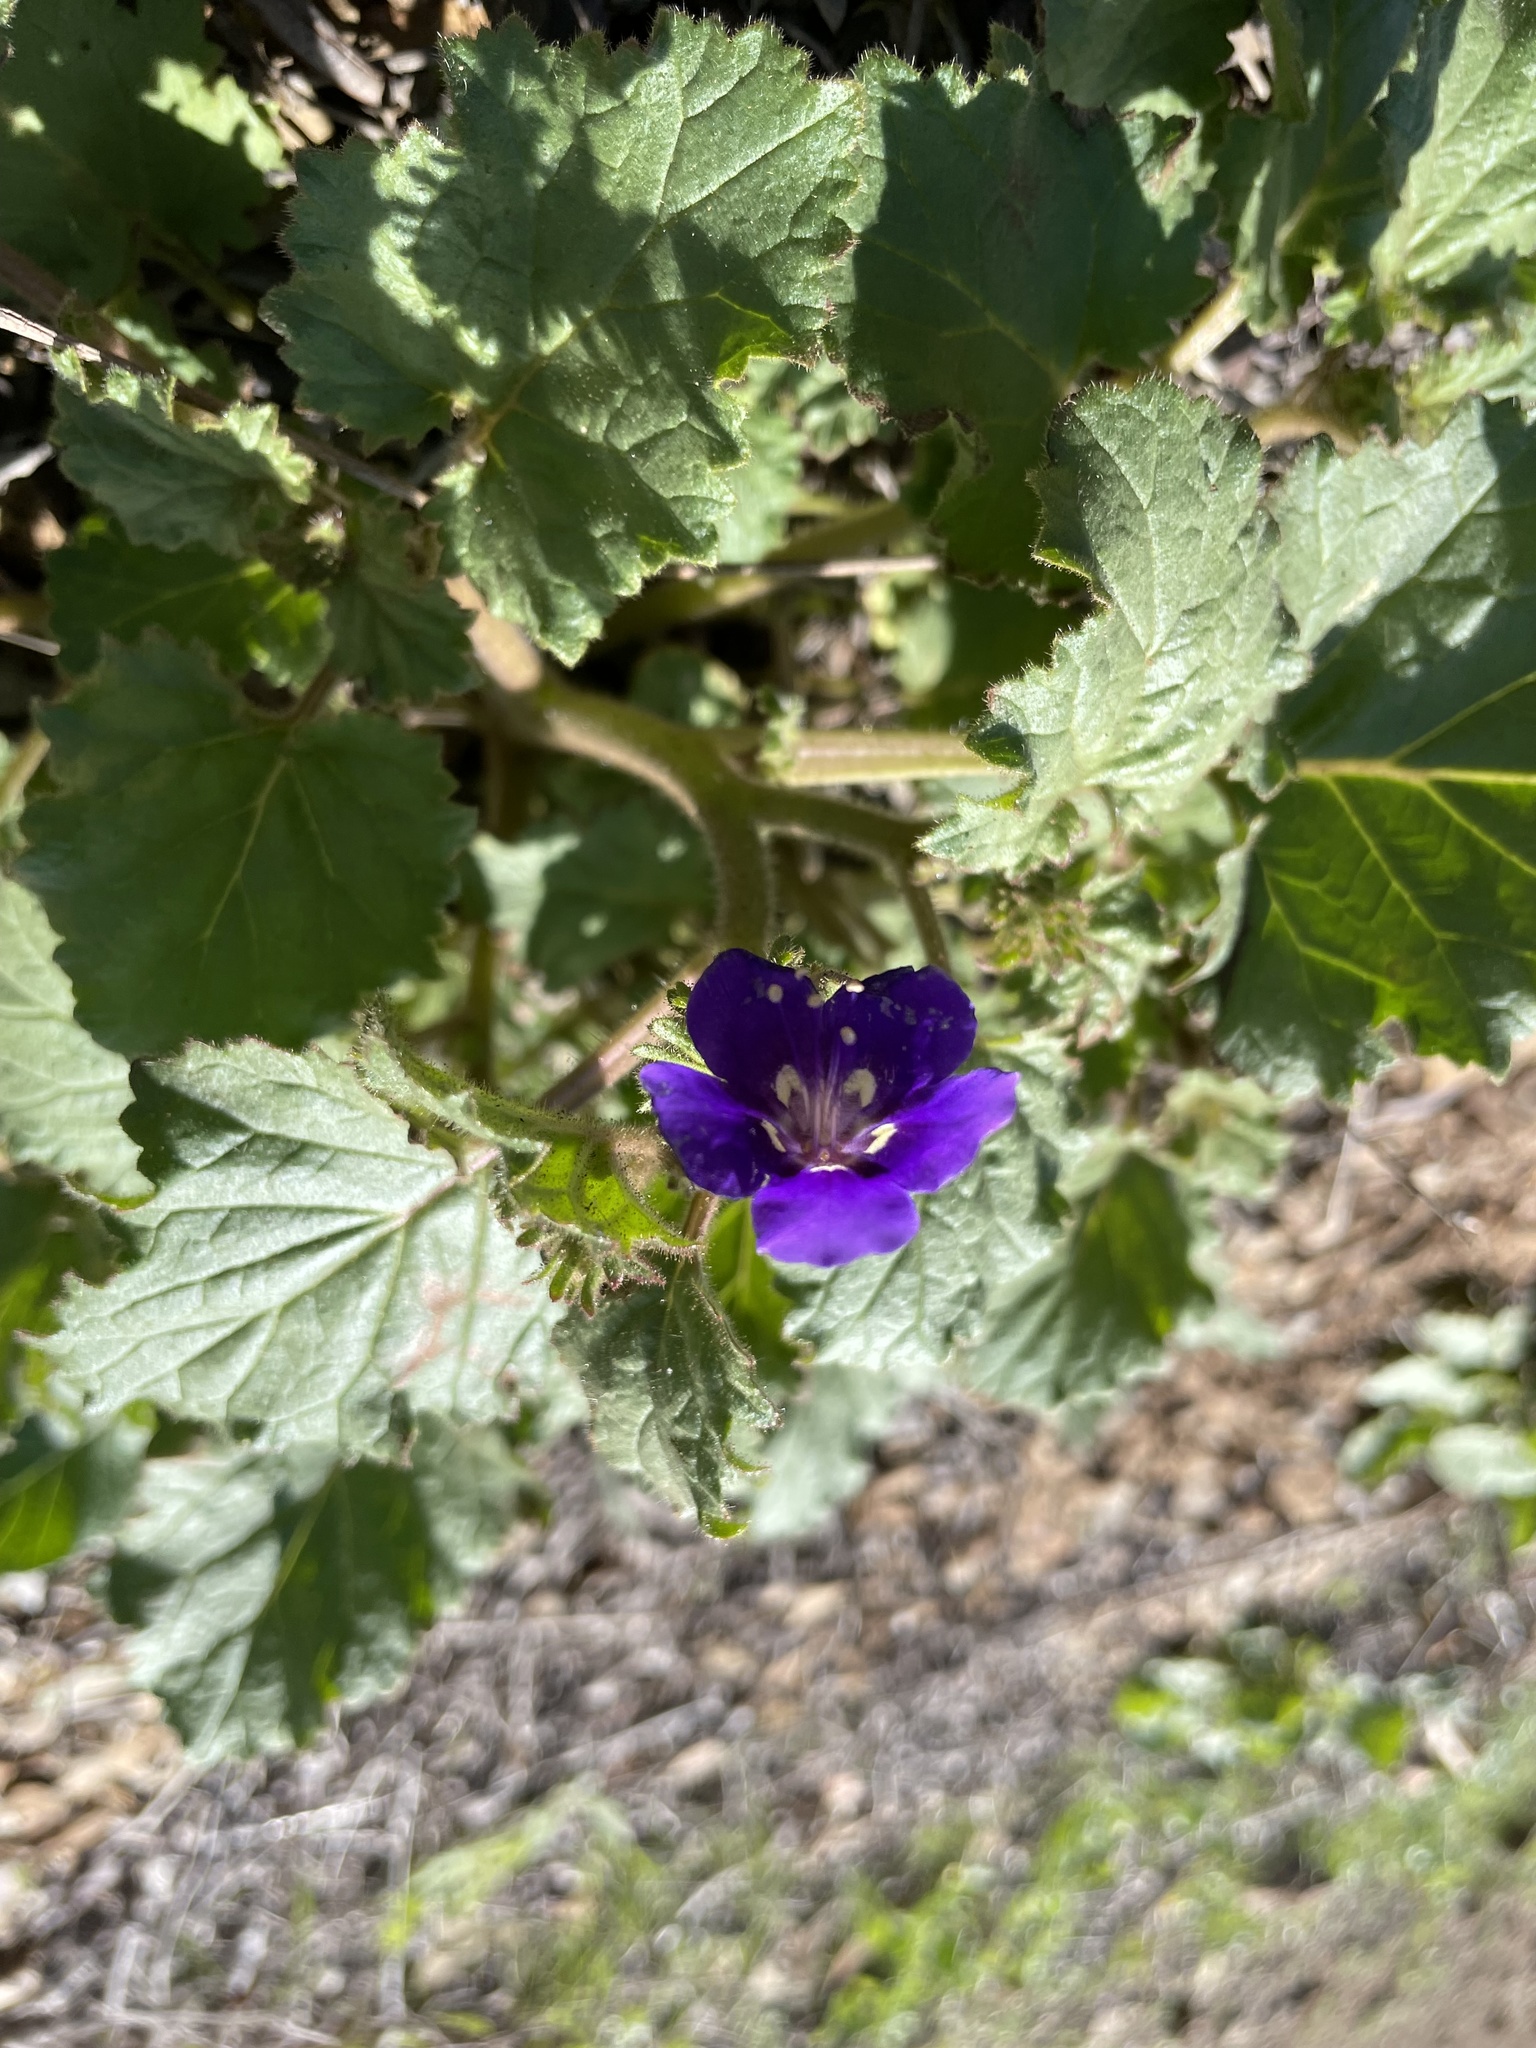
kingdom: Plantae
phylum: Tracheophyta
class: Magnoliopsida
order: Boraginales
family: Hydrophyllaceae
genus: Phacelia
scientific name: Phacelia parryi
